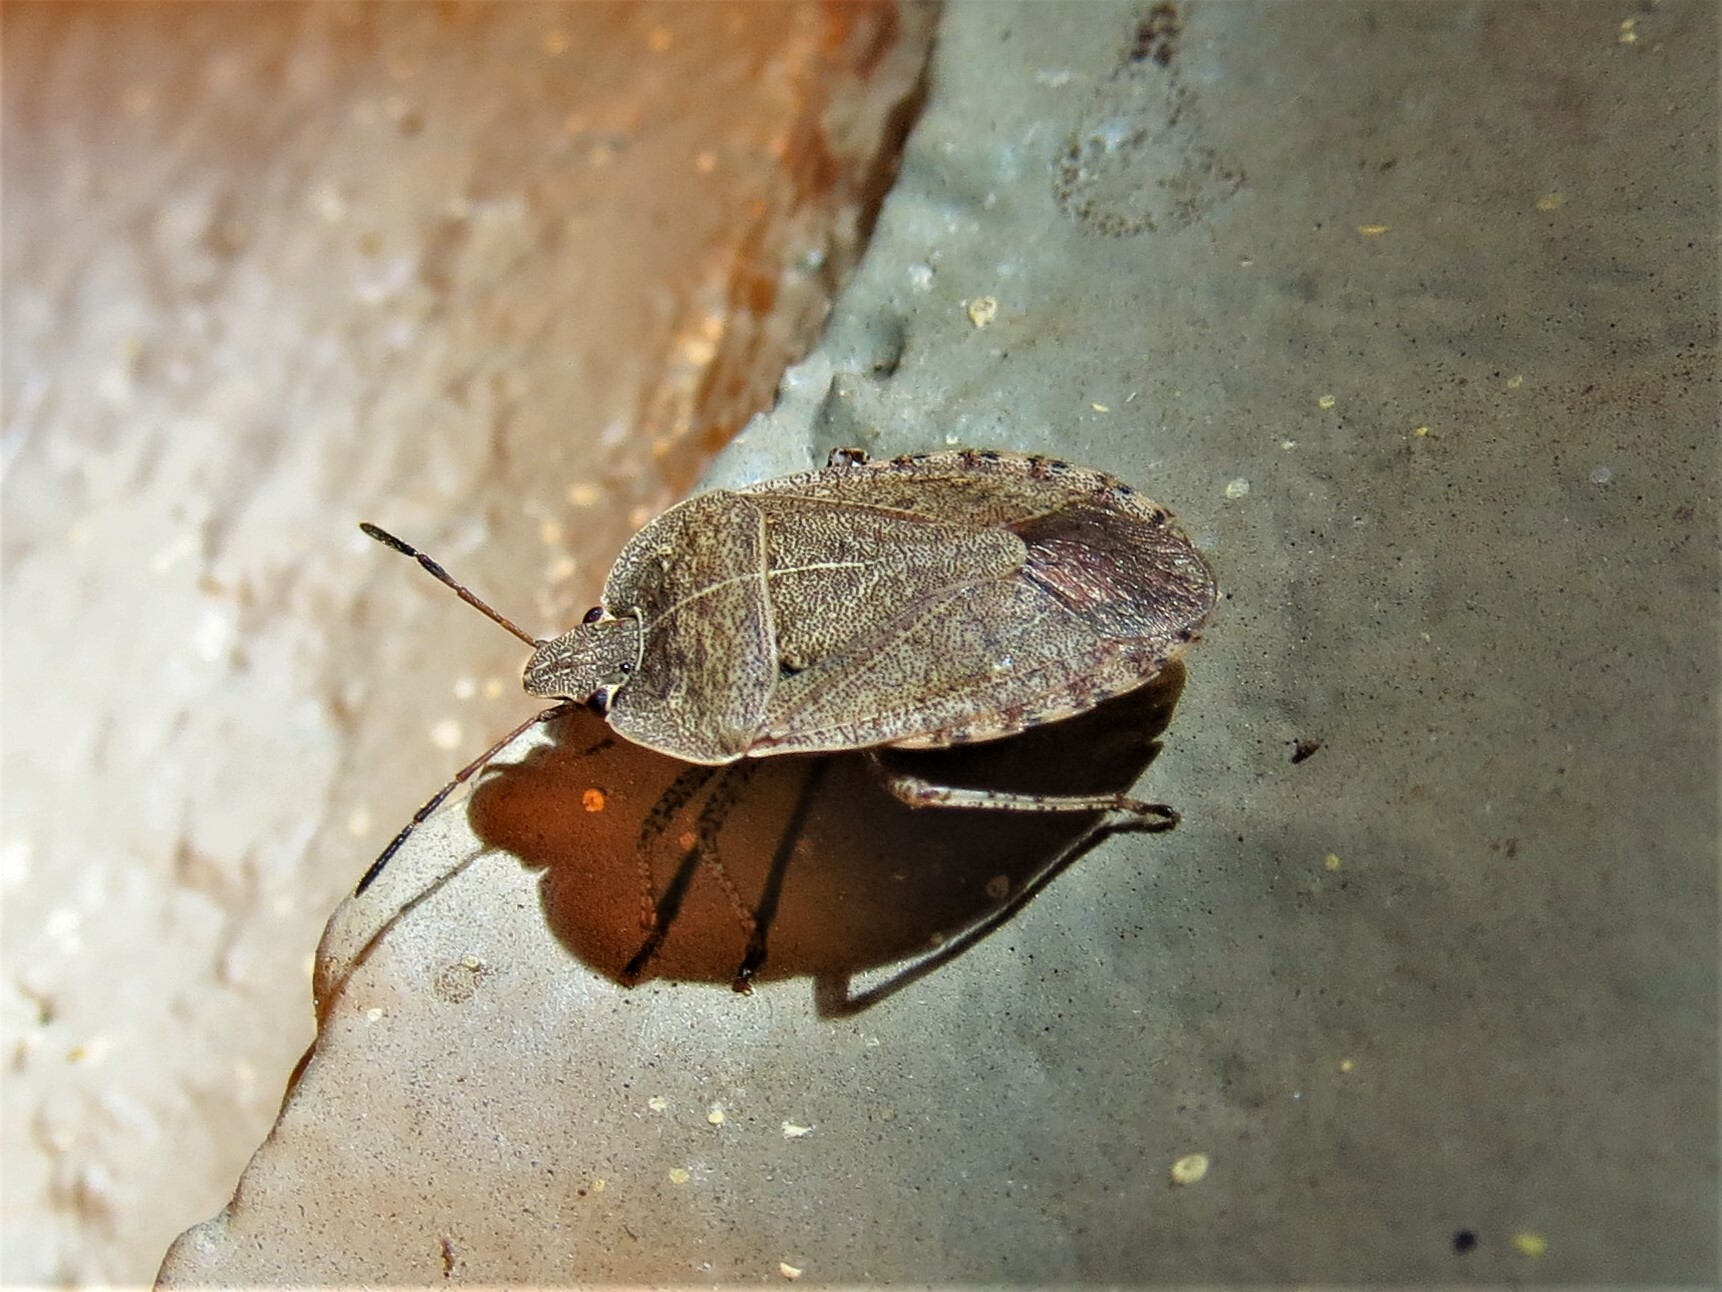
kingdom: Animalia
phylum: Arthropoda
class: Insecta
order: Hemiptera
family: Pentatomidae
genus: Menecles
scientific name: Menecles insertus
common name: Elf shoe stink bug
